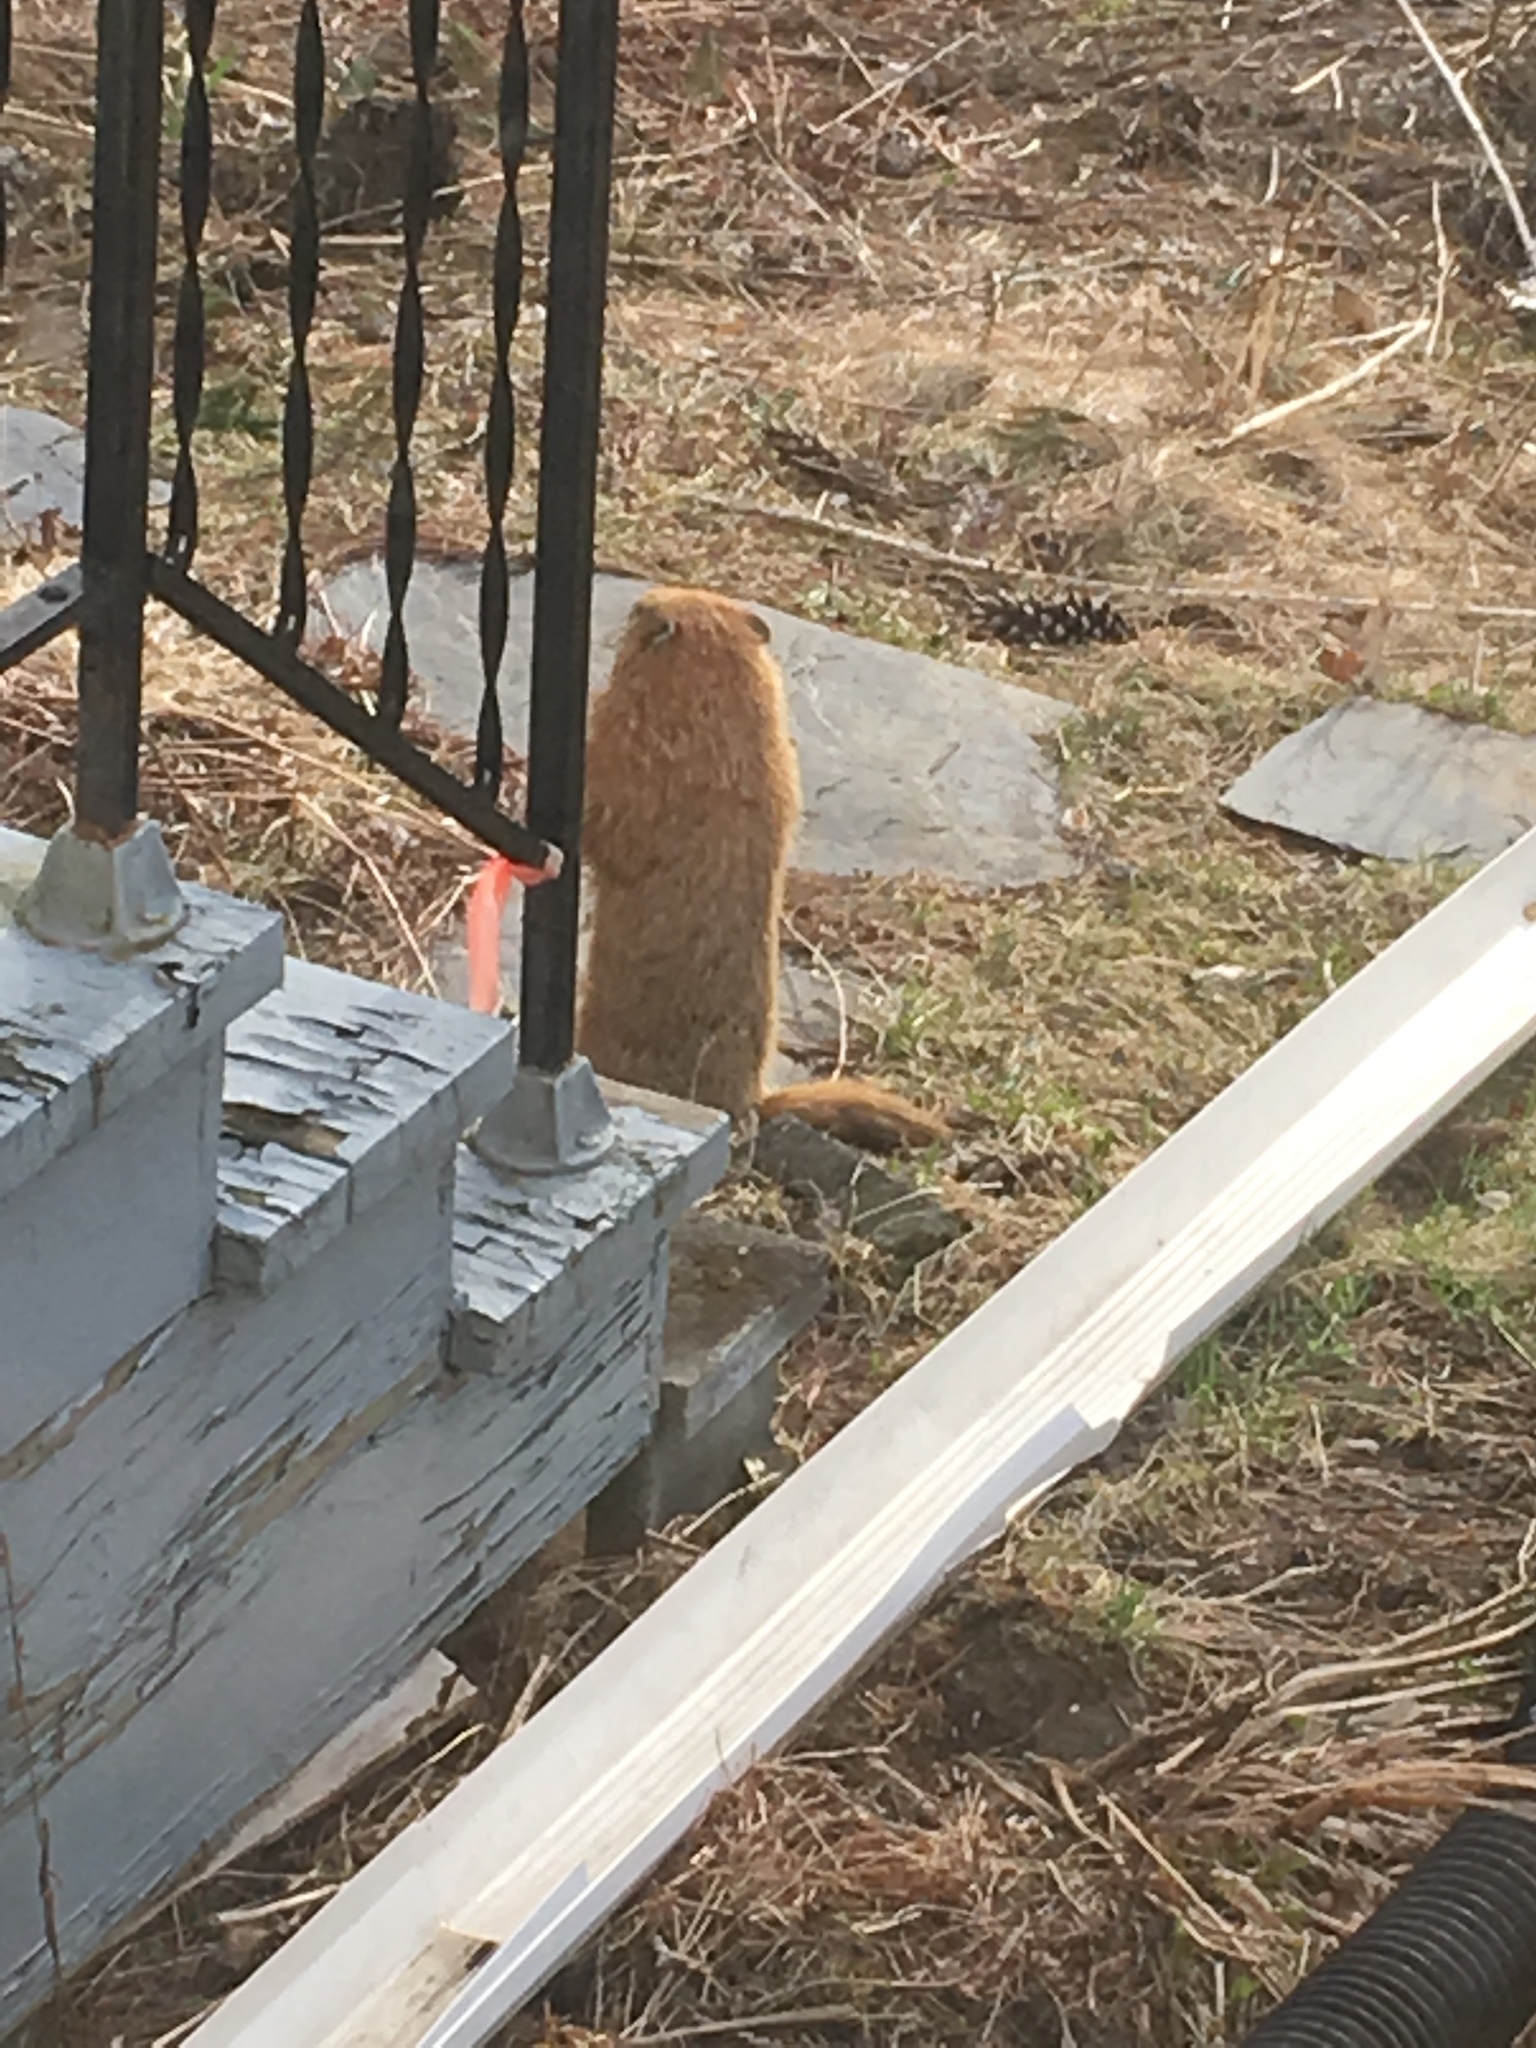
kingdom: Animalia
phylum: Chordata
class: Mammalia
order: Rodentia
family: Sciuridae
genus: Marmota
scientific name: Marmota monax
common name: Groundhog
